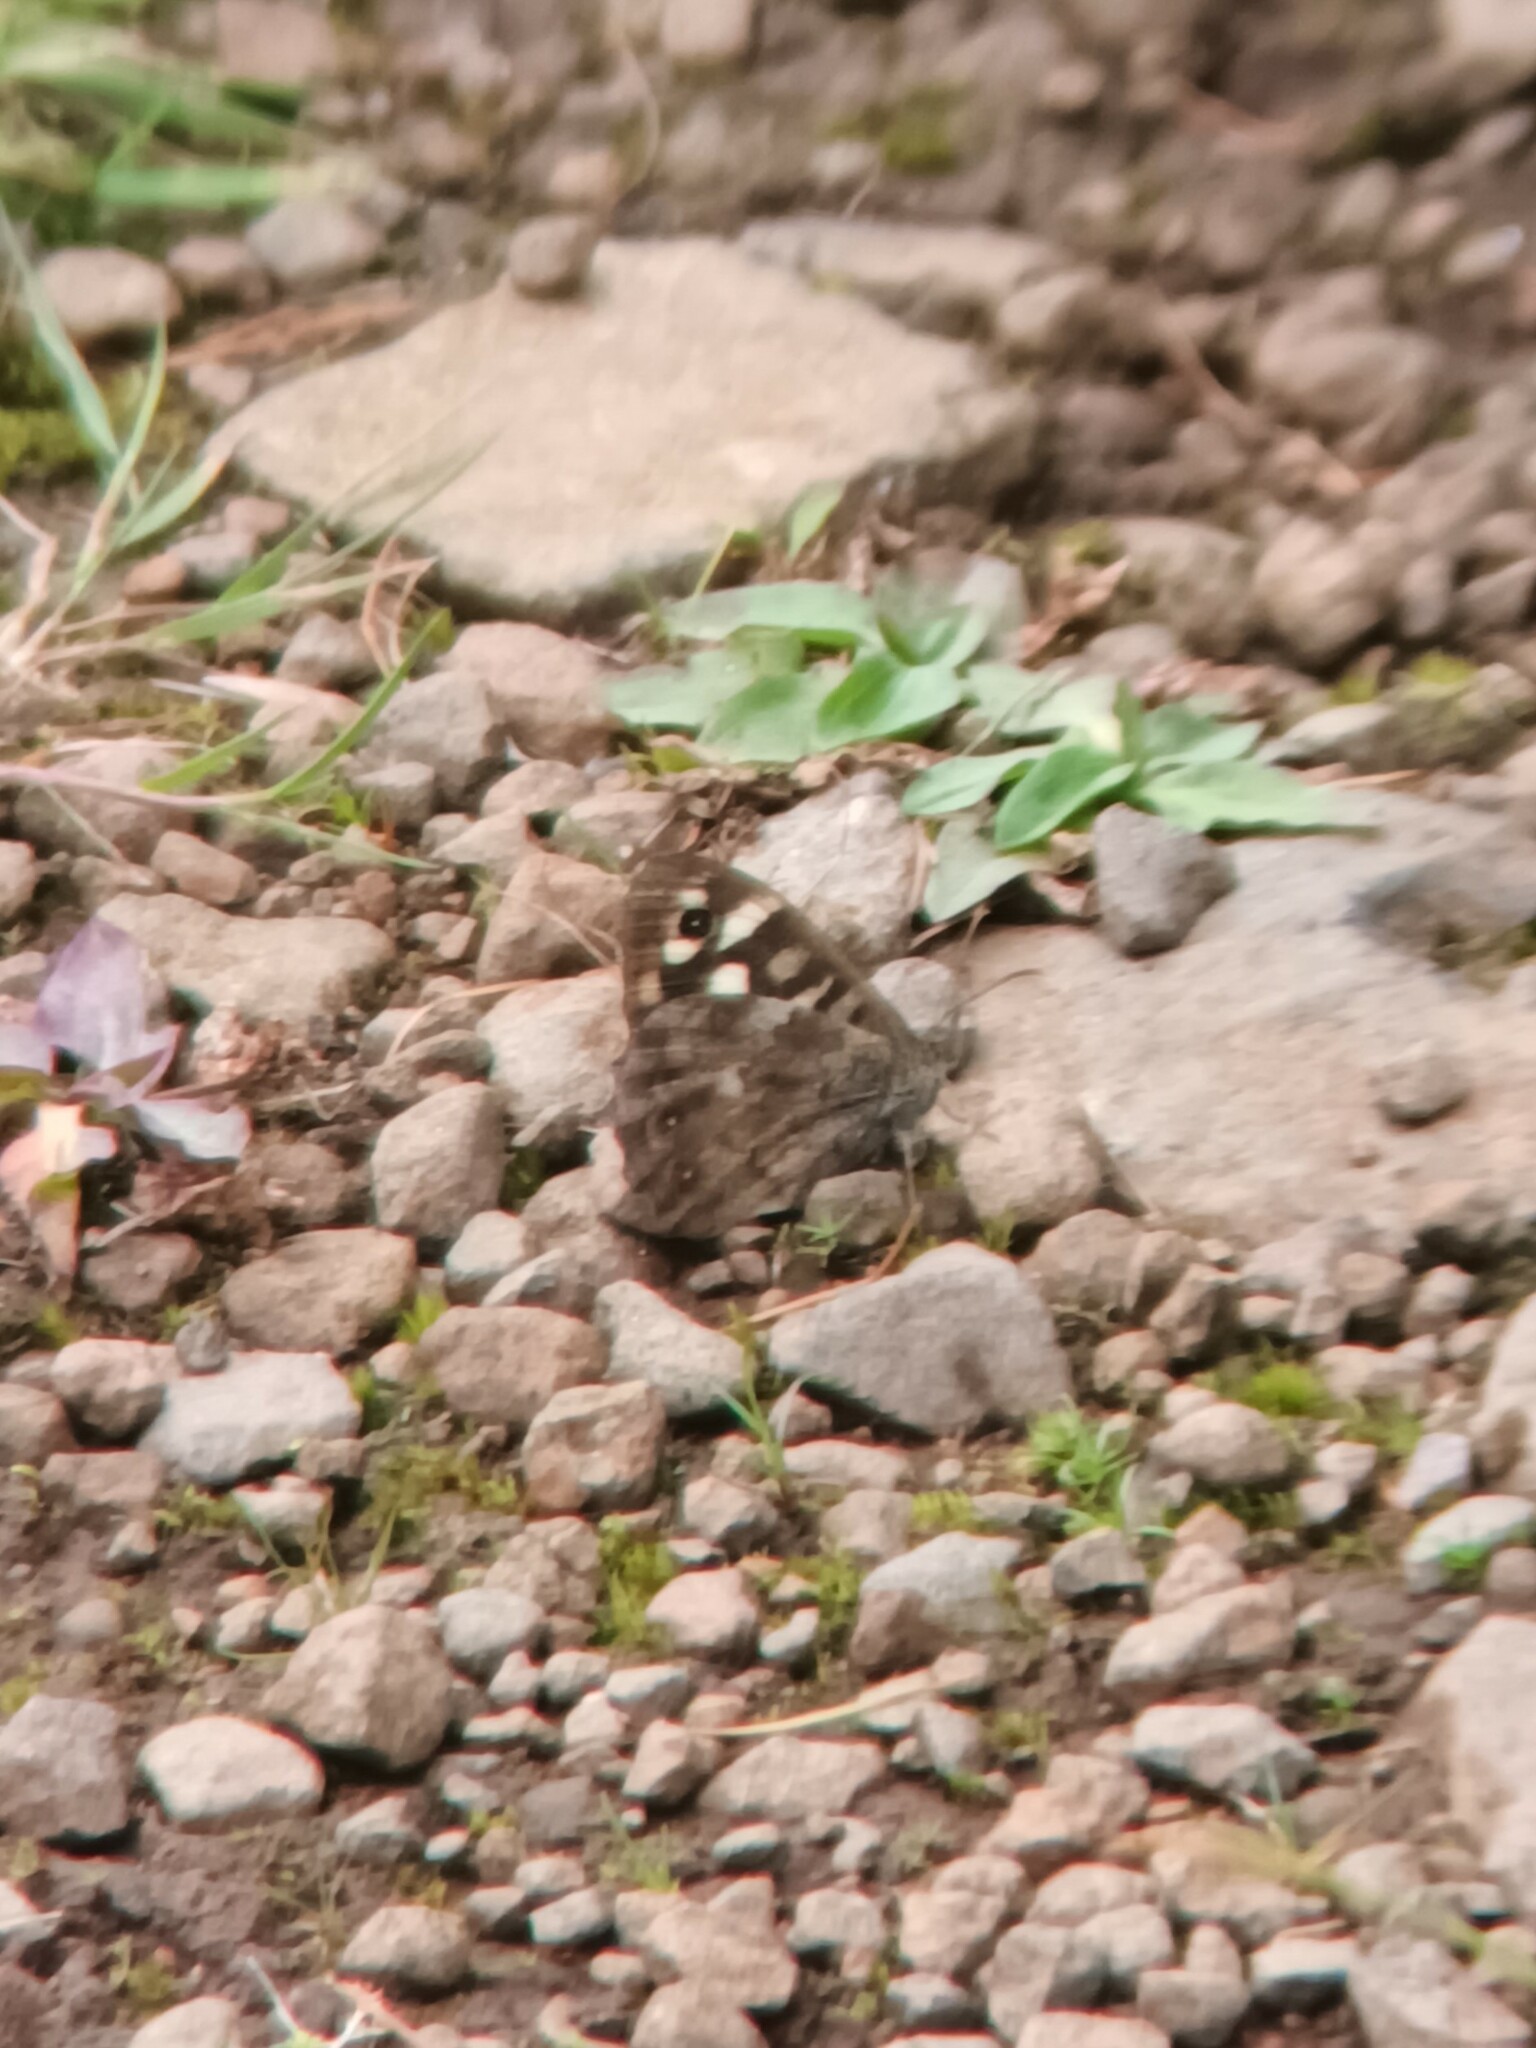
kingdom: Animalia
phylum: Arthropoda
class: Insecta
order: Lepidoptera
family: Nymphalidae
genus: Pararge
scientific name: Pararge aegeria
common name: Speckled wood
